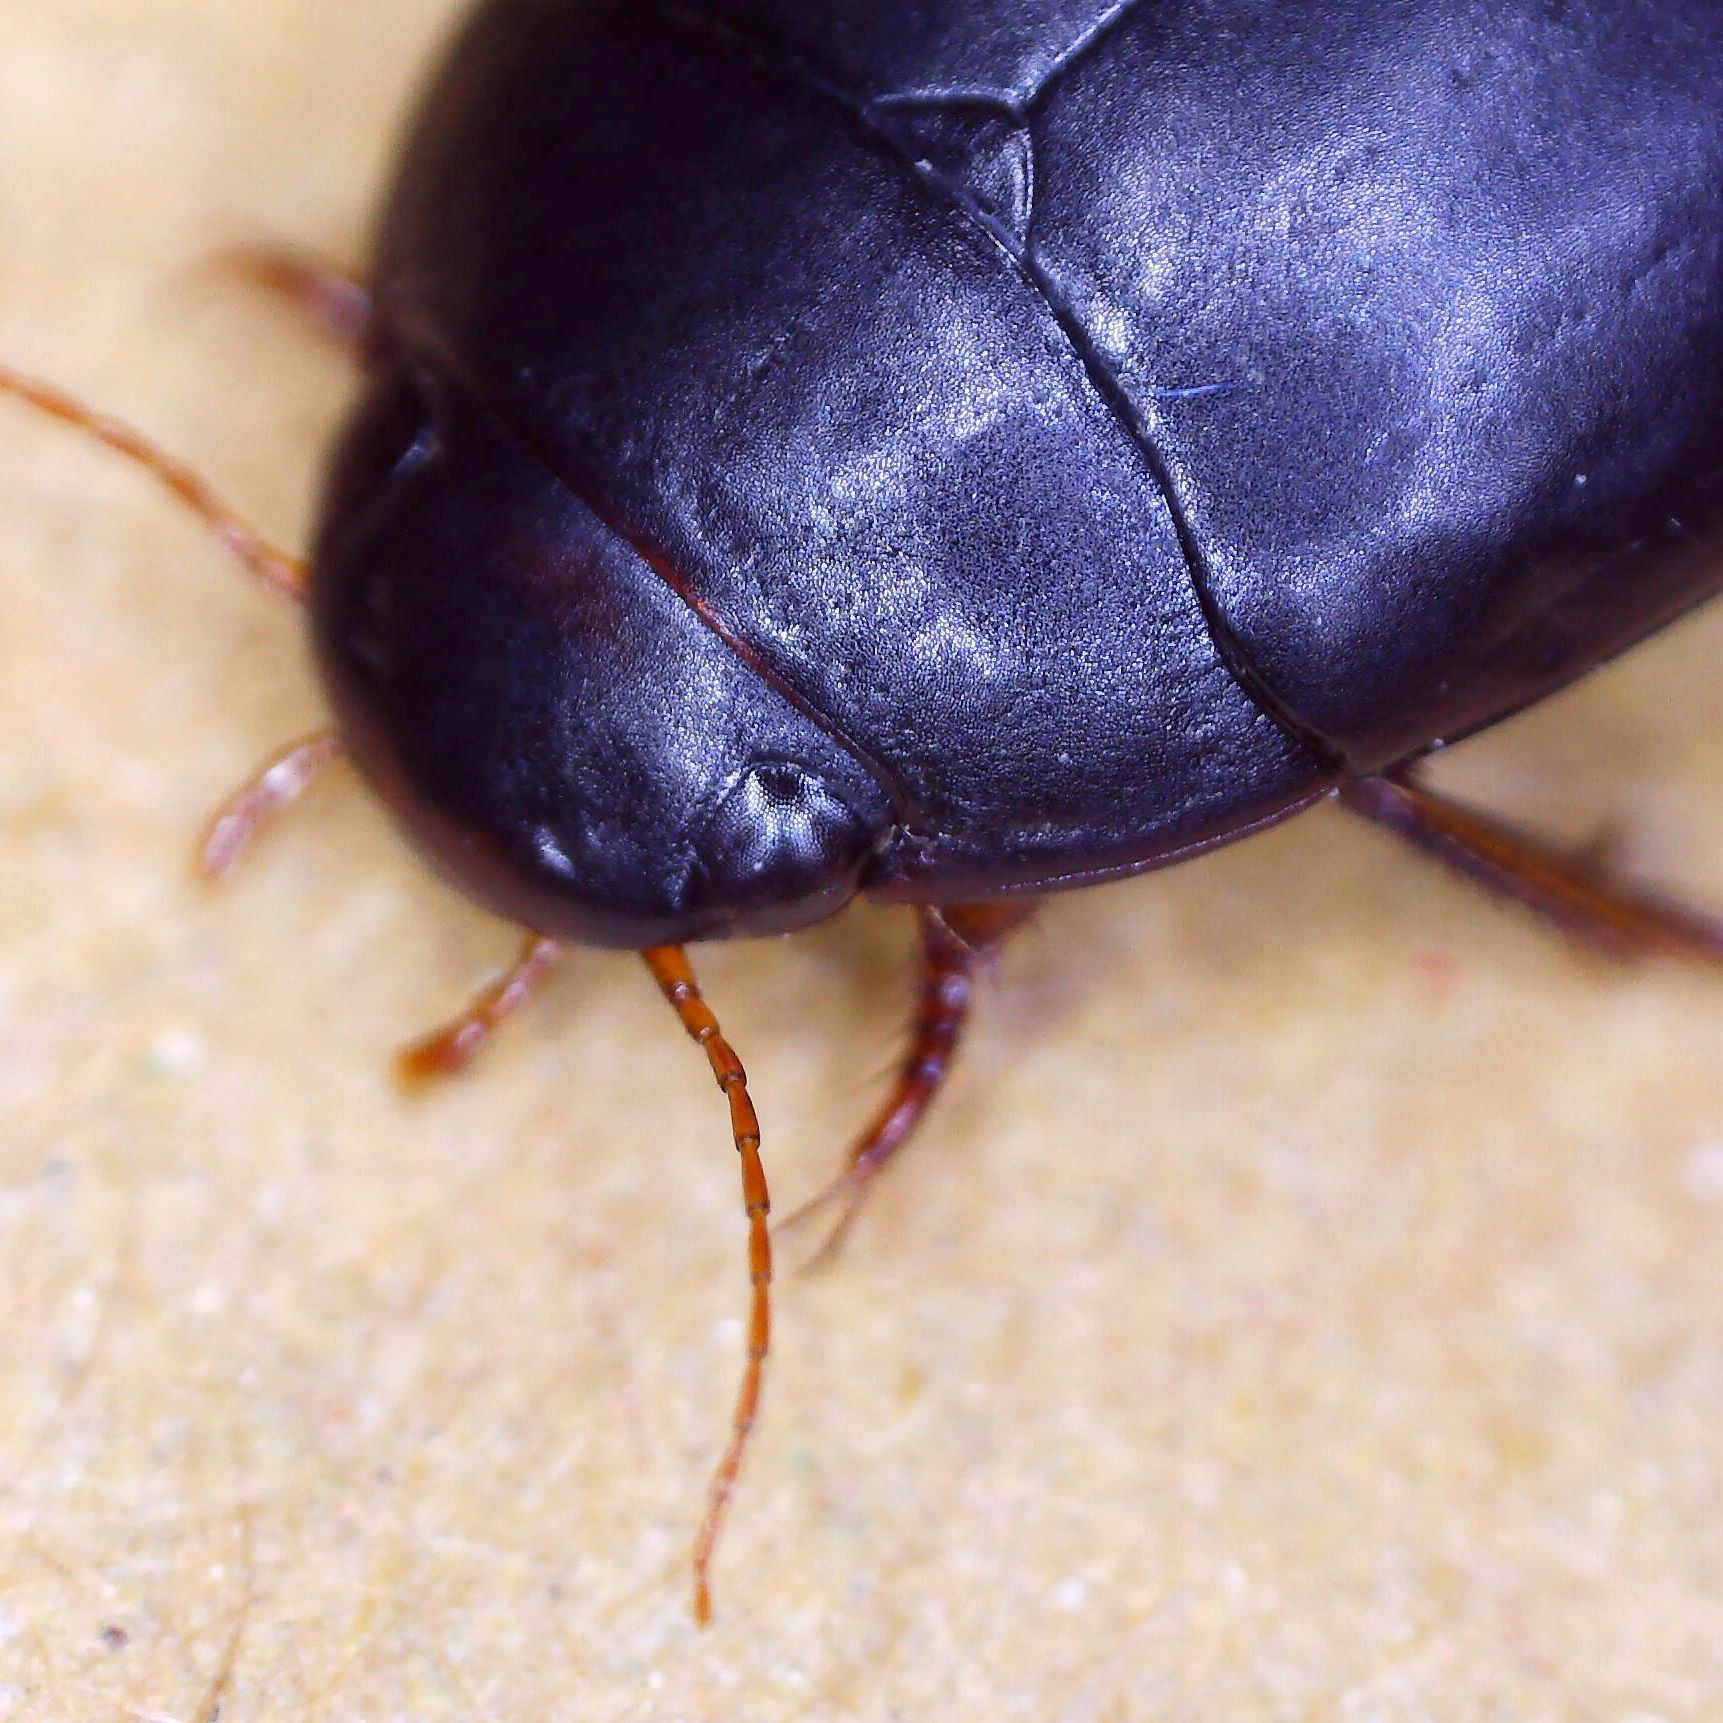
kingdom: Animalia
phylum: Arthropoda
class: Insecta
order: Coleoptera
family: Dytiscidae
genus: Nartus
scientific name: Nartus grapii
